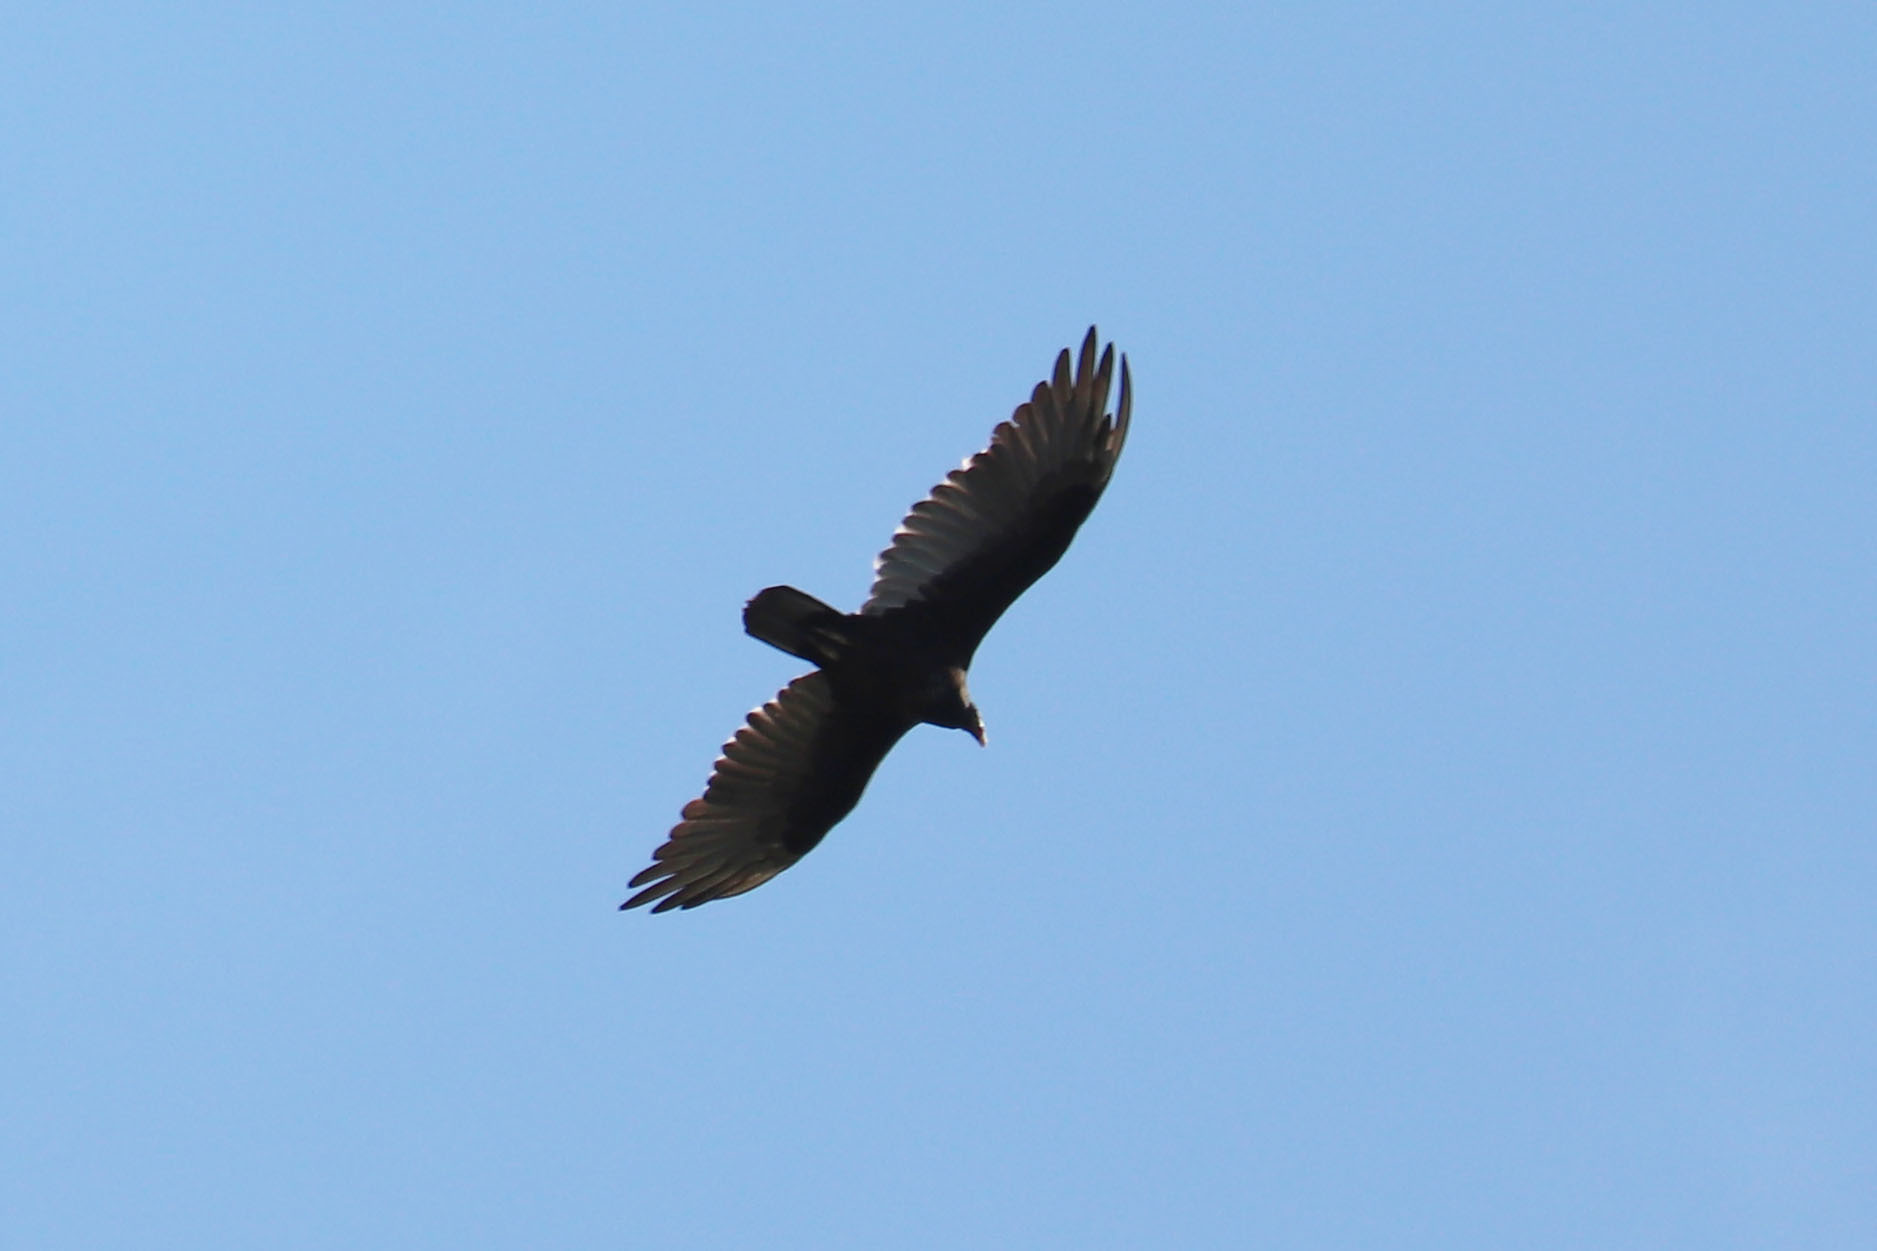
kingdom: Animalia
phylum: Chordata
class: Aves
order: Accipitriformes
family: Cathartidae
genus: Cathartes
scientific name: Cathartes aura
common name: Turkey vulture
